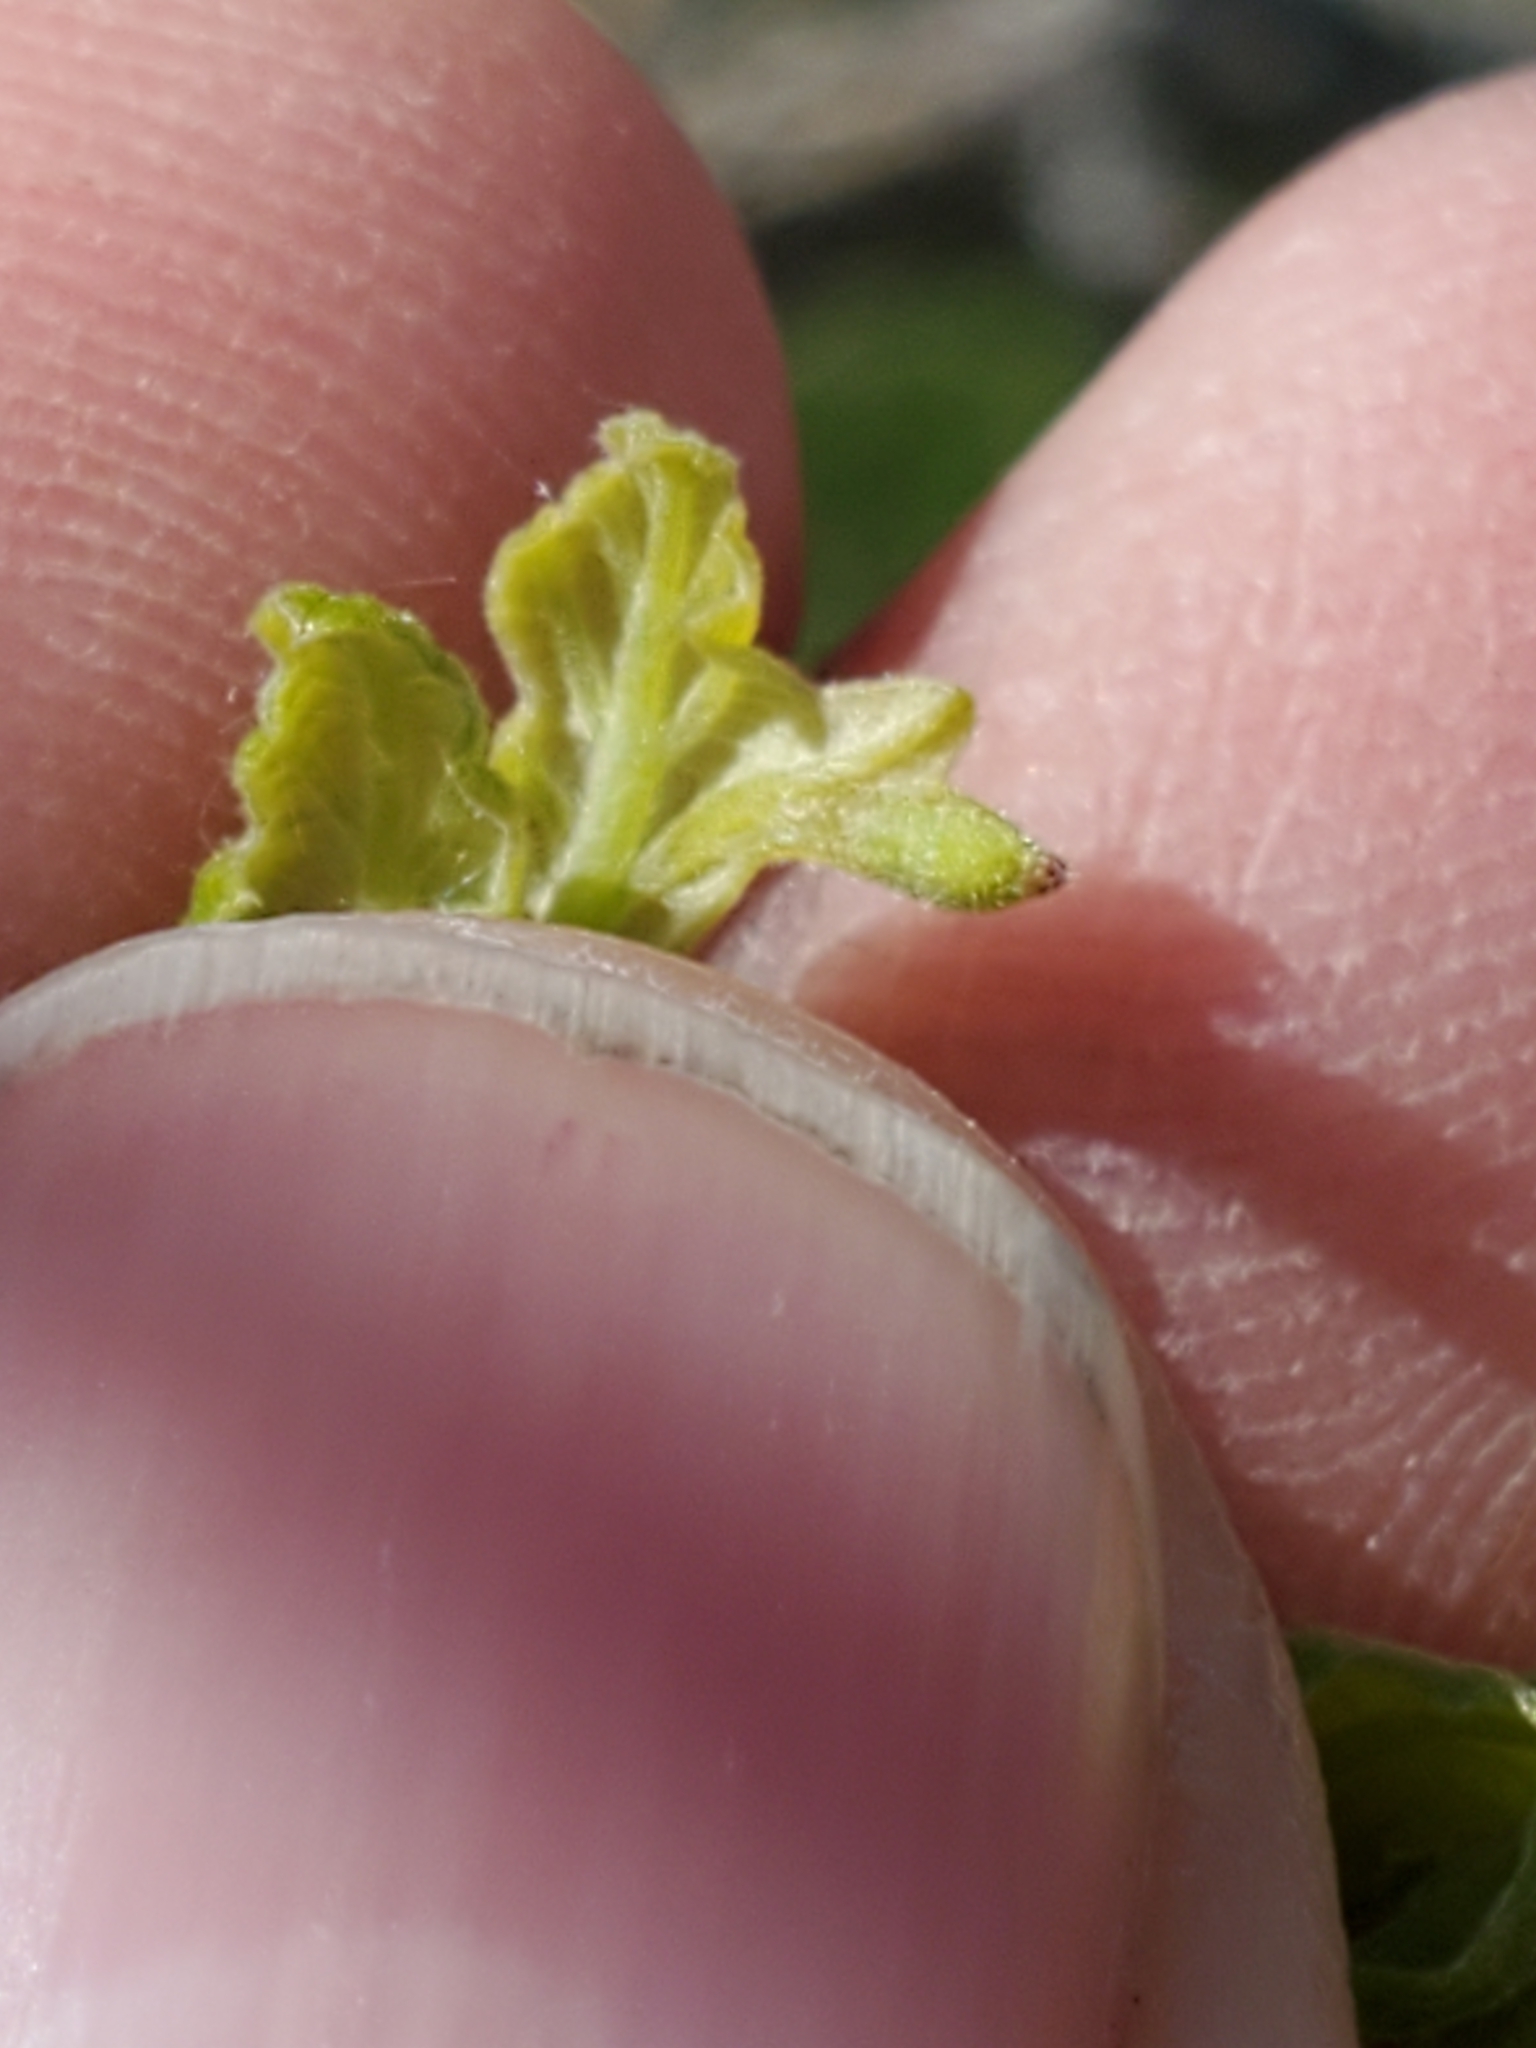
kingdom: Animalia
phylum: Arthropoda
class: Insecta
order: Hymenoptera
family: Cynipidae
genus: Andricus
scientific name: Andricus
